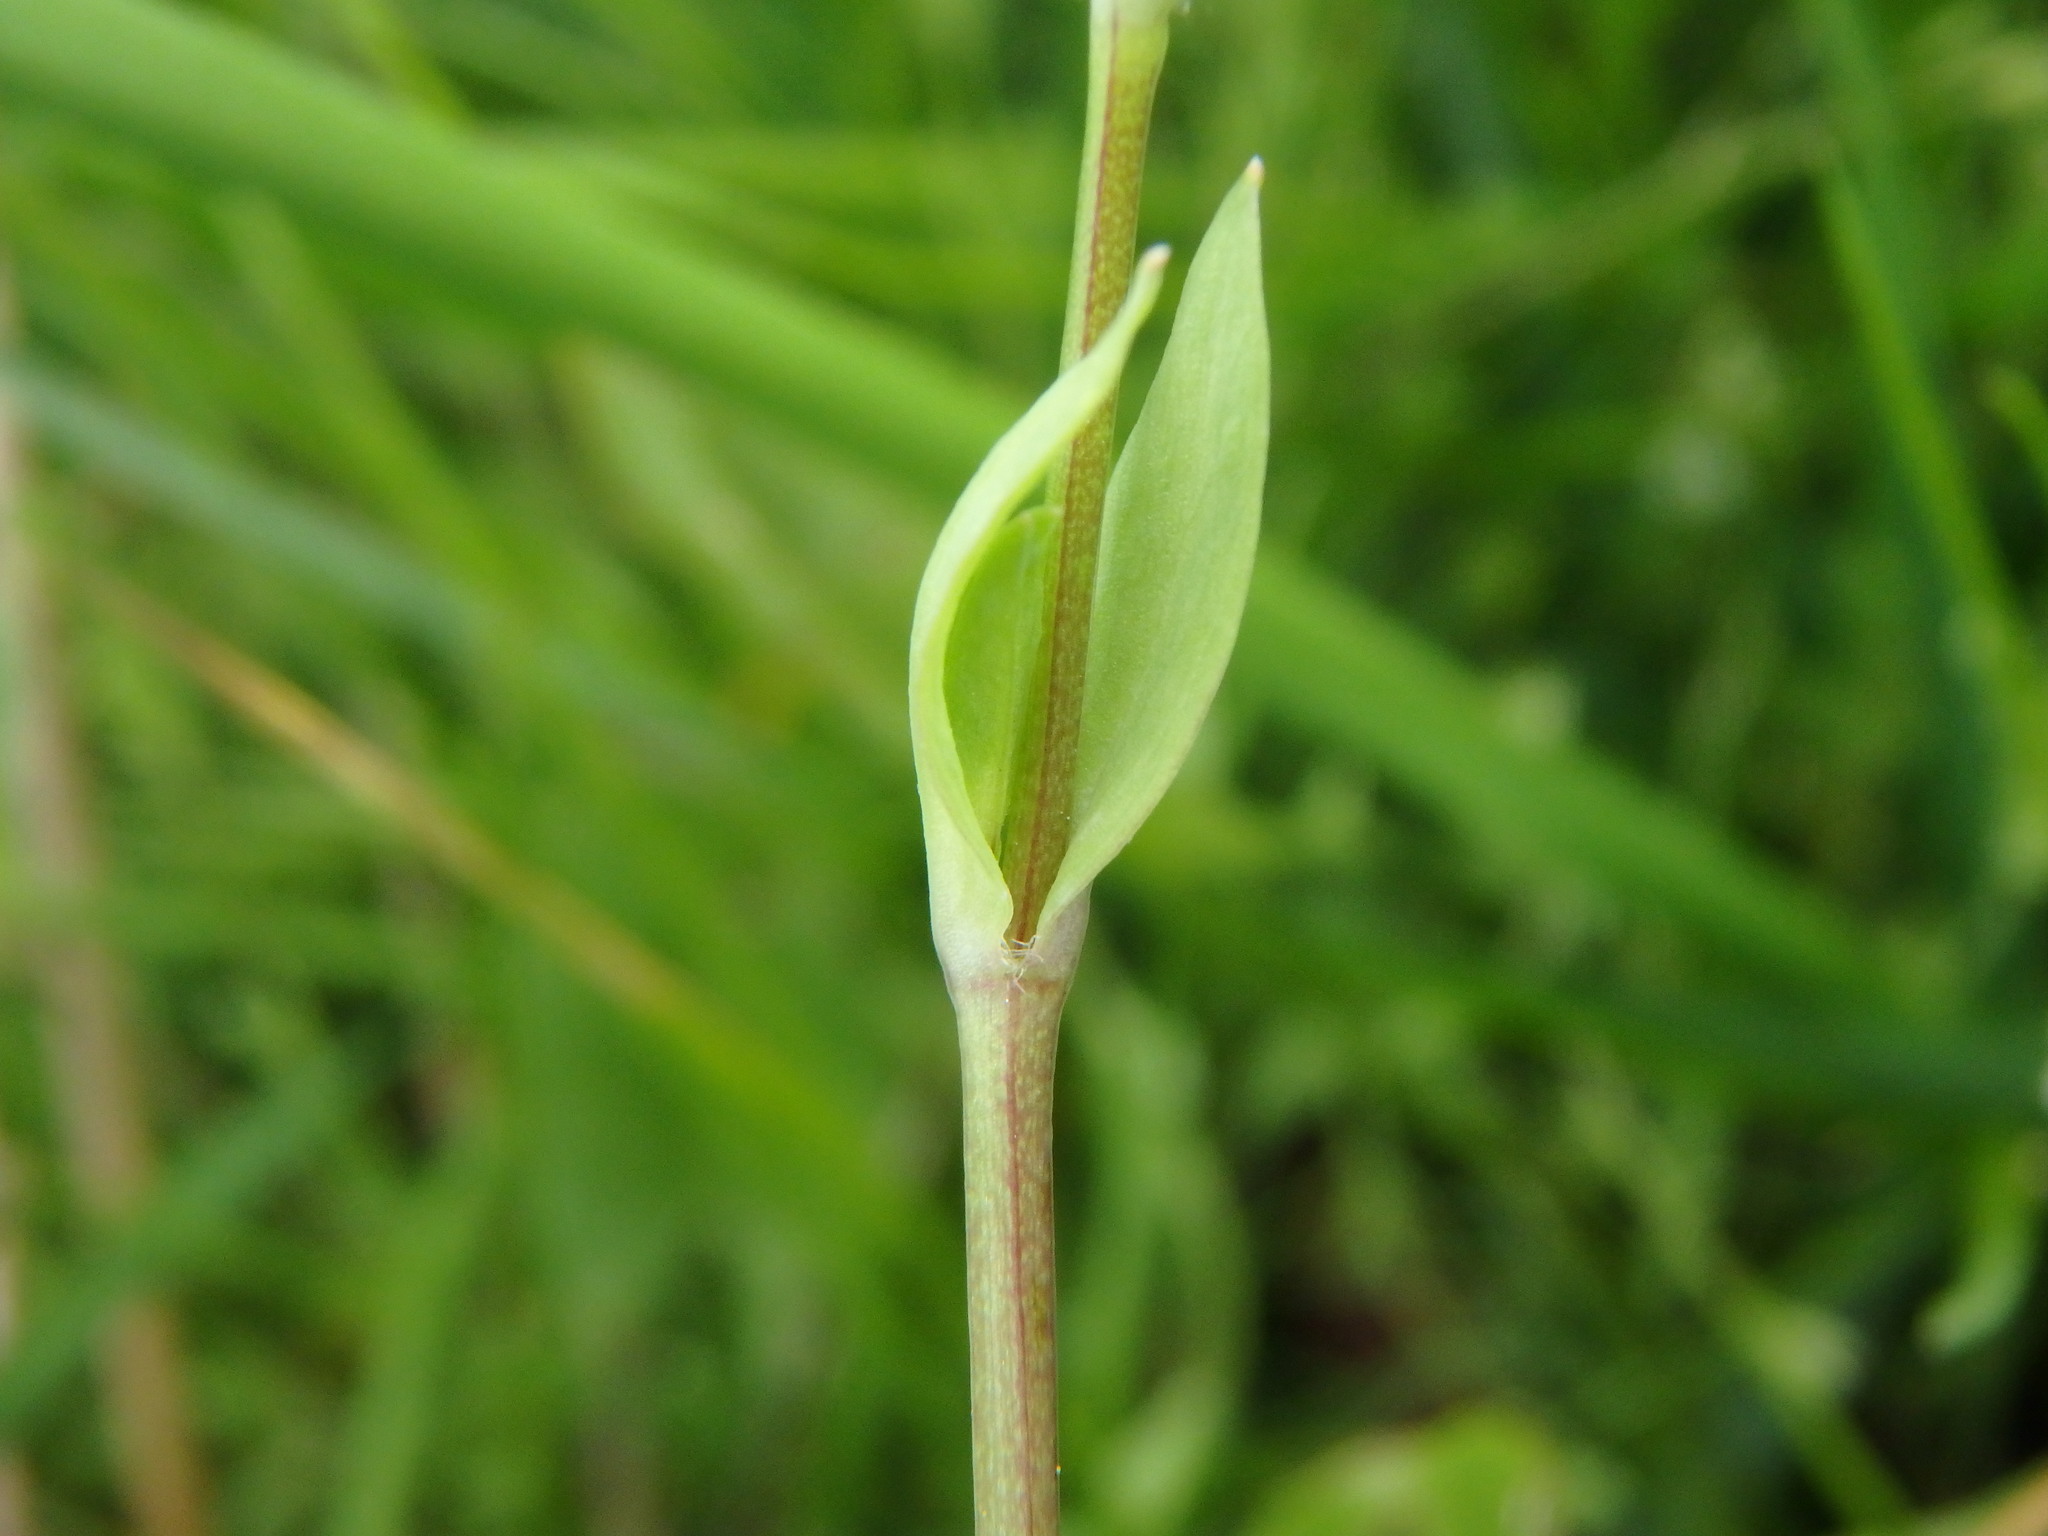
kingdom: Plantae
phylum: Tracheophyta
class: Magnoliopsida
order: Caryophyllales
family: Caryophyllaceae
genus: Stellaria
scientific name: Stellaria alsine
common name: Bog stitchwort
